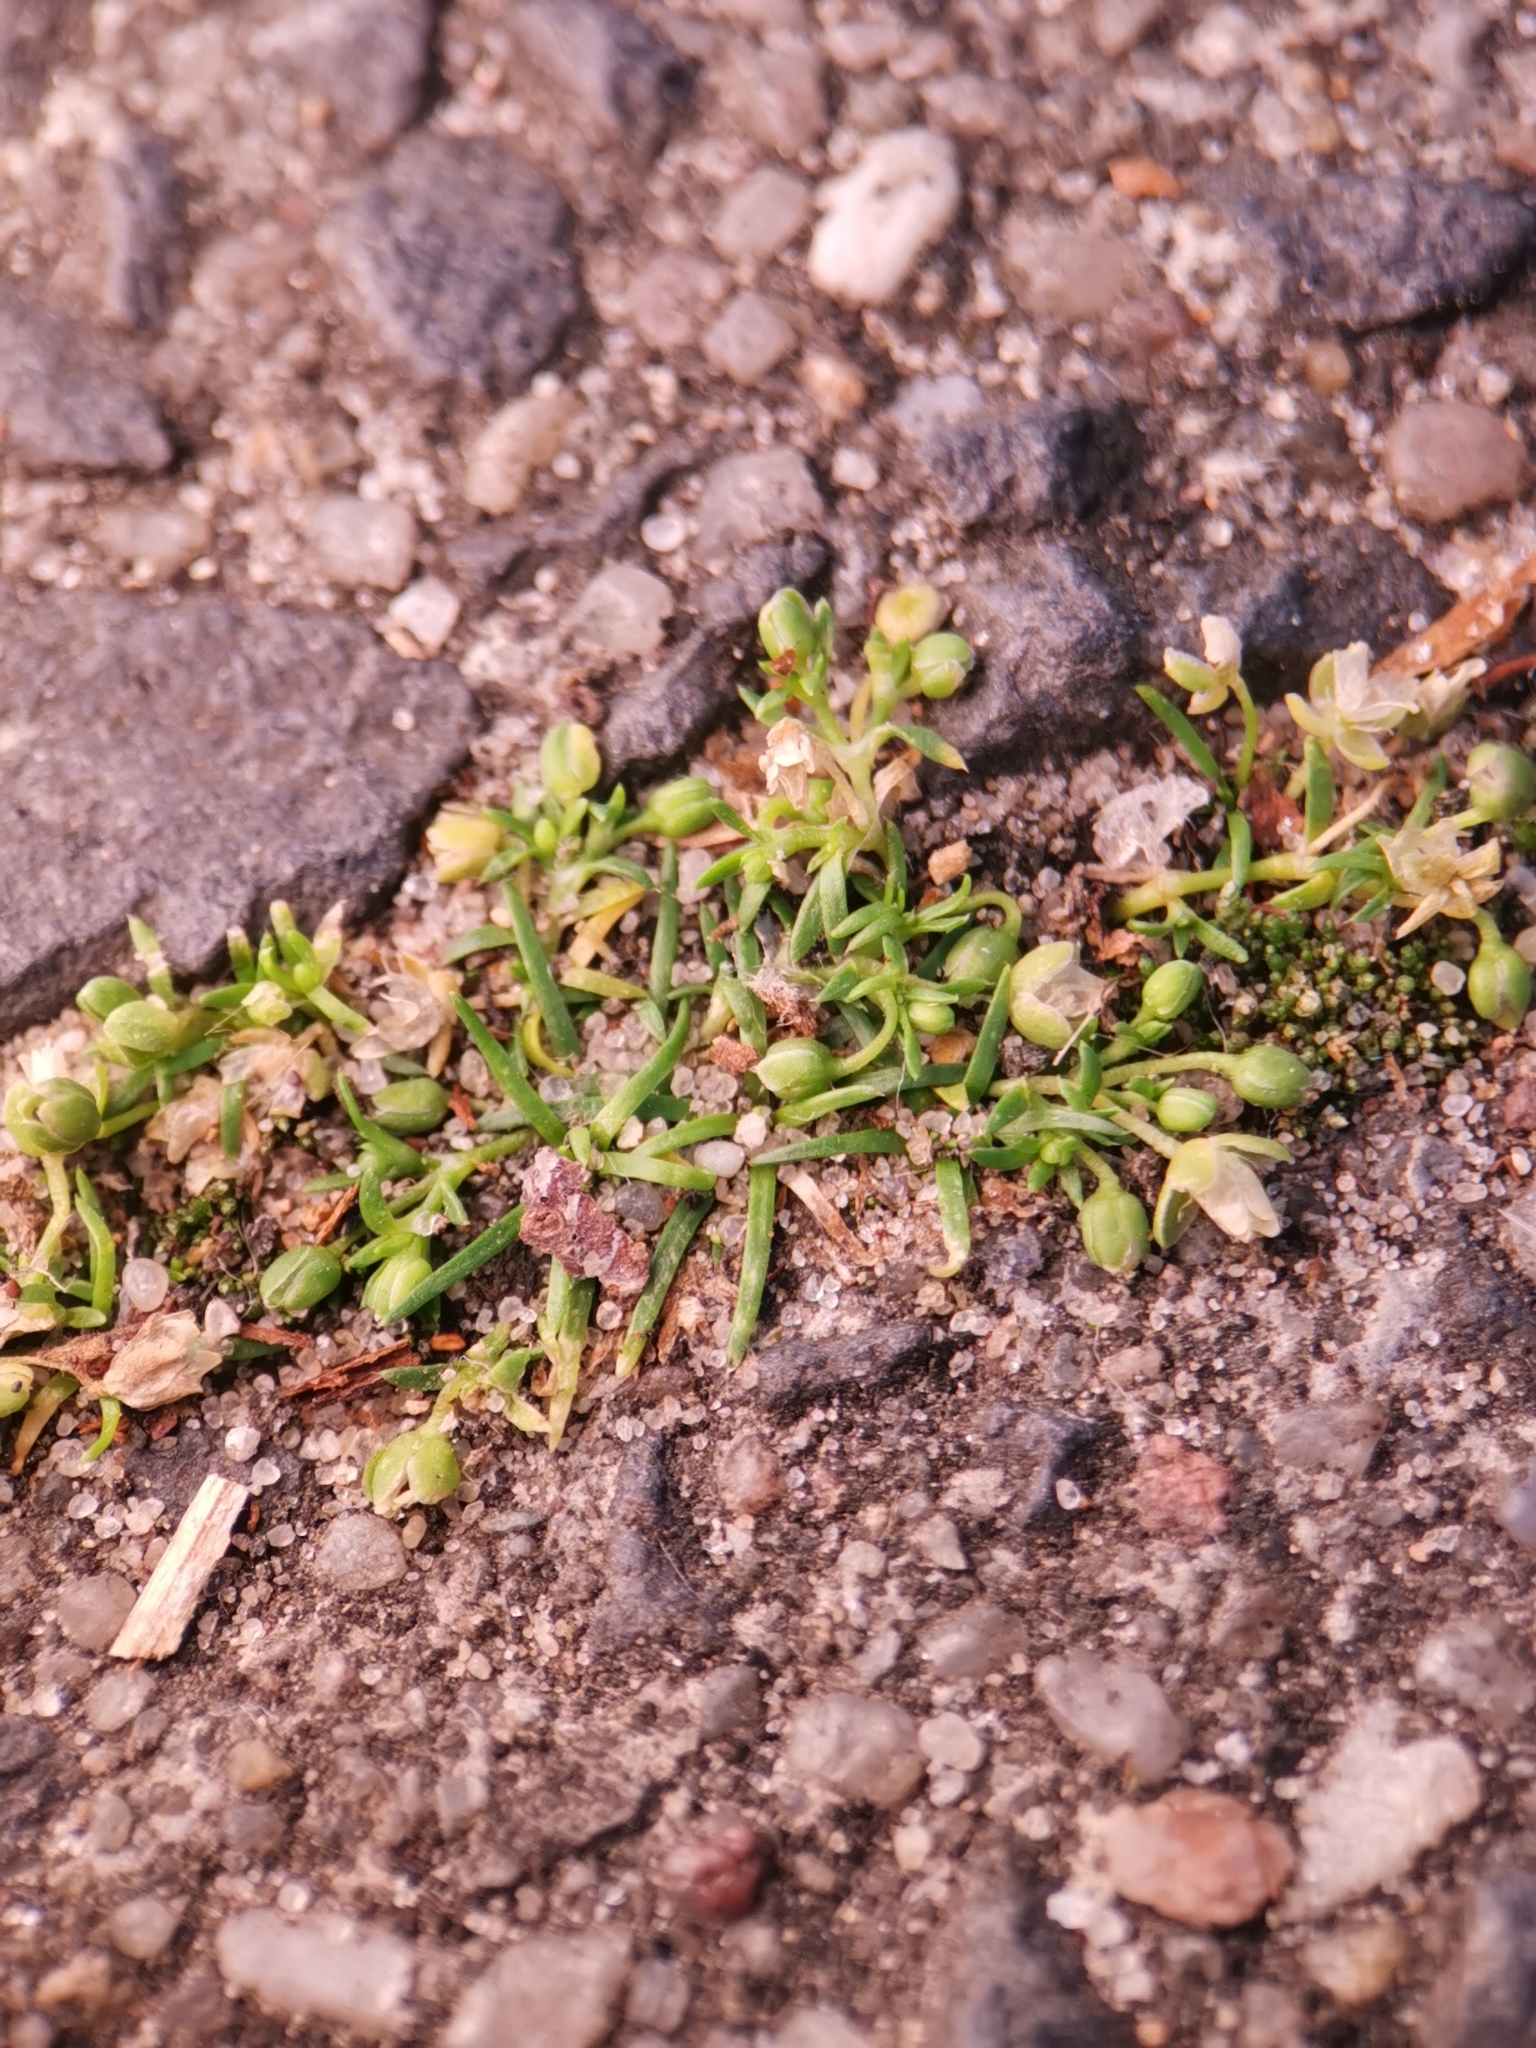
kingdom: Plantae
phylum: Tracheophyta
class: Magnoliopsida
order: Caryophyllales
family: Caryophyllaceae
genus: Sagina
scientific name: Sagina procumbens
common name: Procumbent pearlwort
